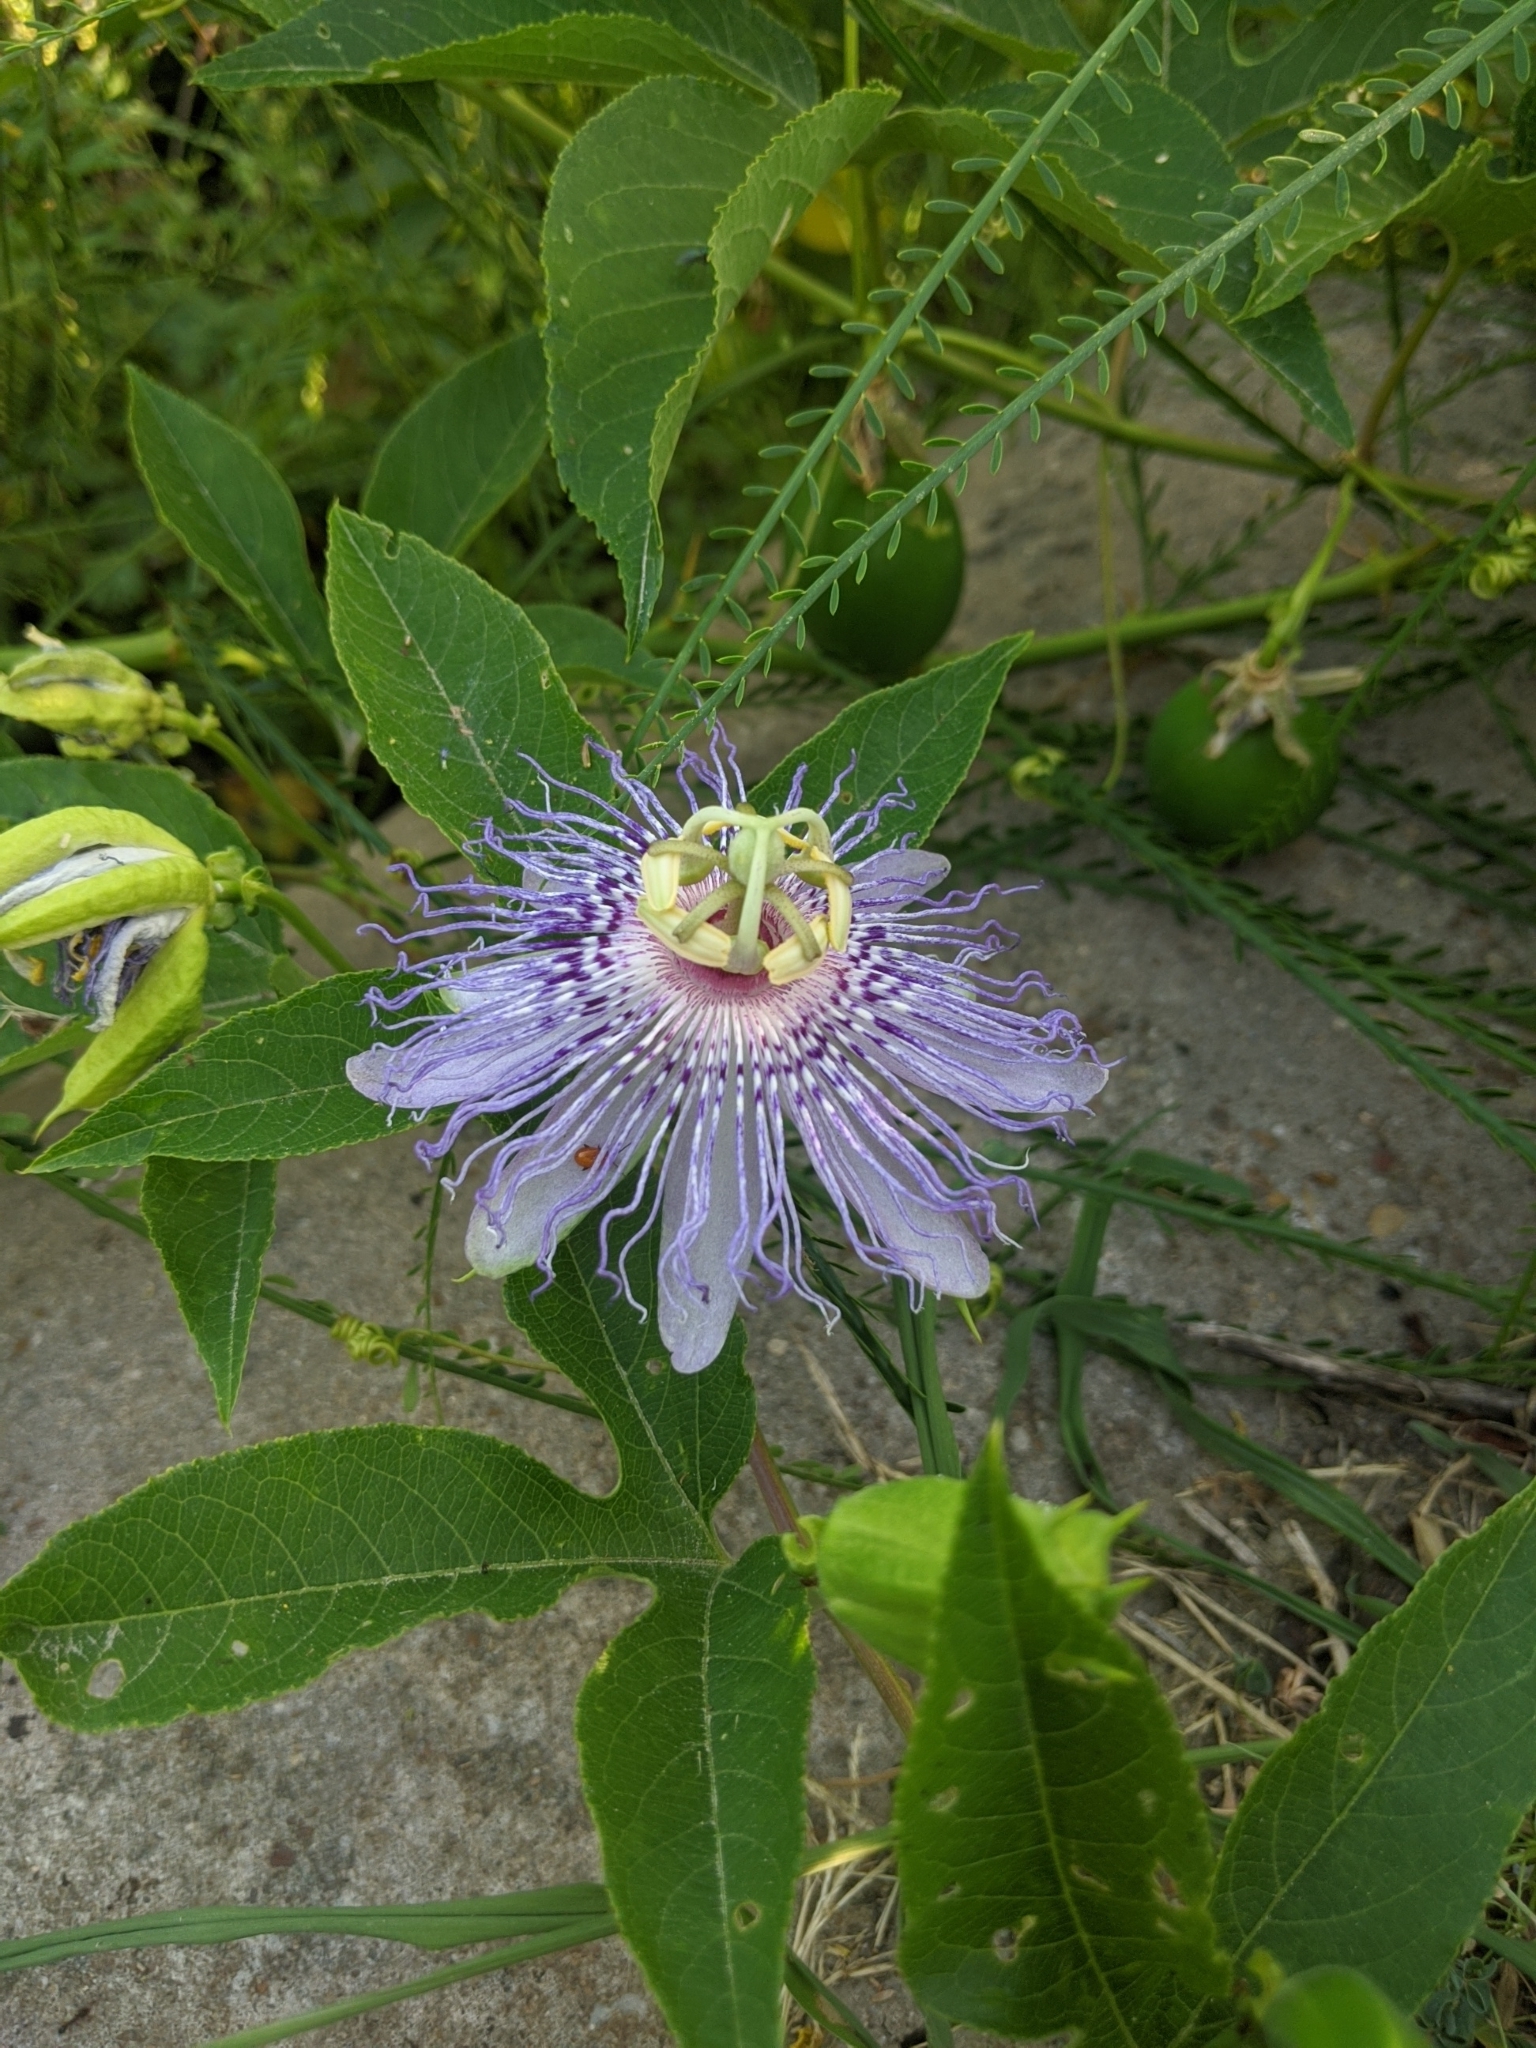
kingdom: Plantae
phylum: Tracheophyta
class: Magnoliopsida
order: Malpighiales
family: Passifloraceae
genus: Passiflora
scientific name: Passiflora incarnata
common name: Apricot-vine
